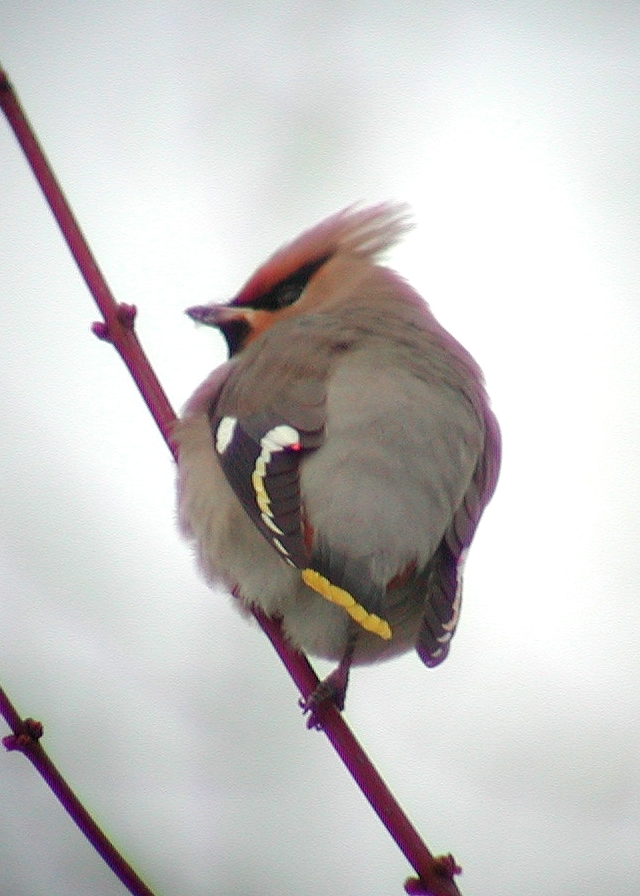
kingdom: Animalia
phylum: Chordata
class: Aves
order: Passeriformes
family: Bombycillidae
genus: Bombycilla
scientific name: Bombycilla garrulus
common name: Bohemian waxwing
